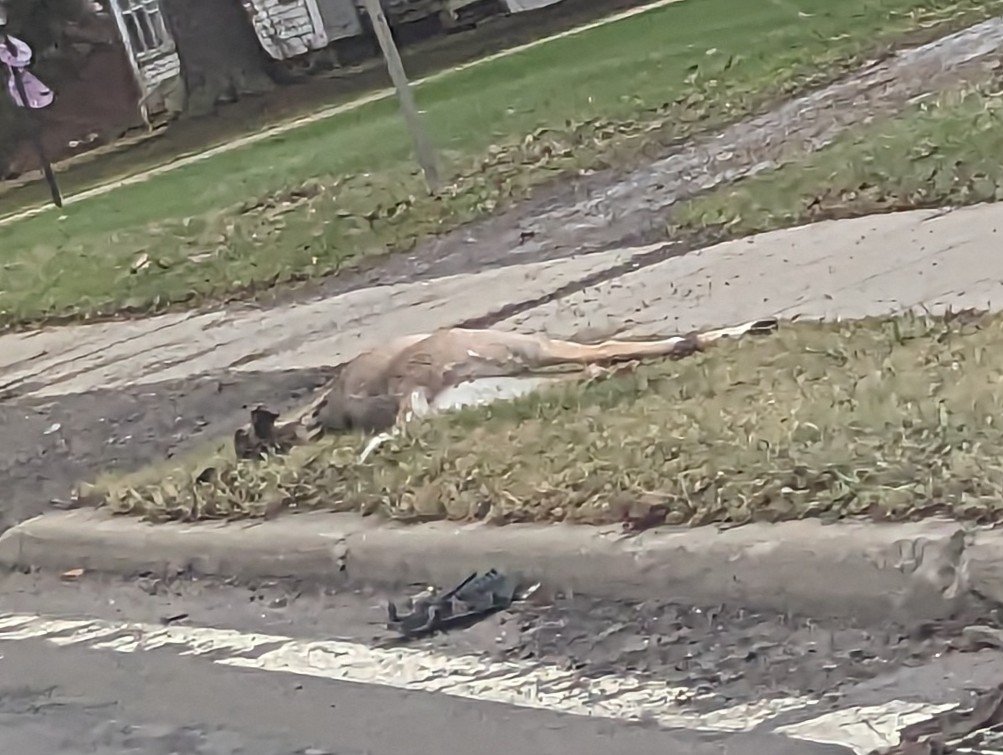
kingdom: Animalia
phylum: Chordata
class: Mammalia
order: Artiodactyla
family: Cervidae
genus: Odocoileus
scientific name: Odocoileus virginianus
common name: White-tailed deer
